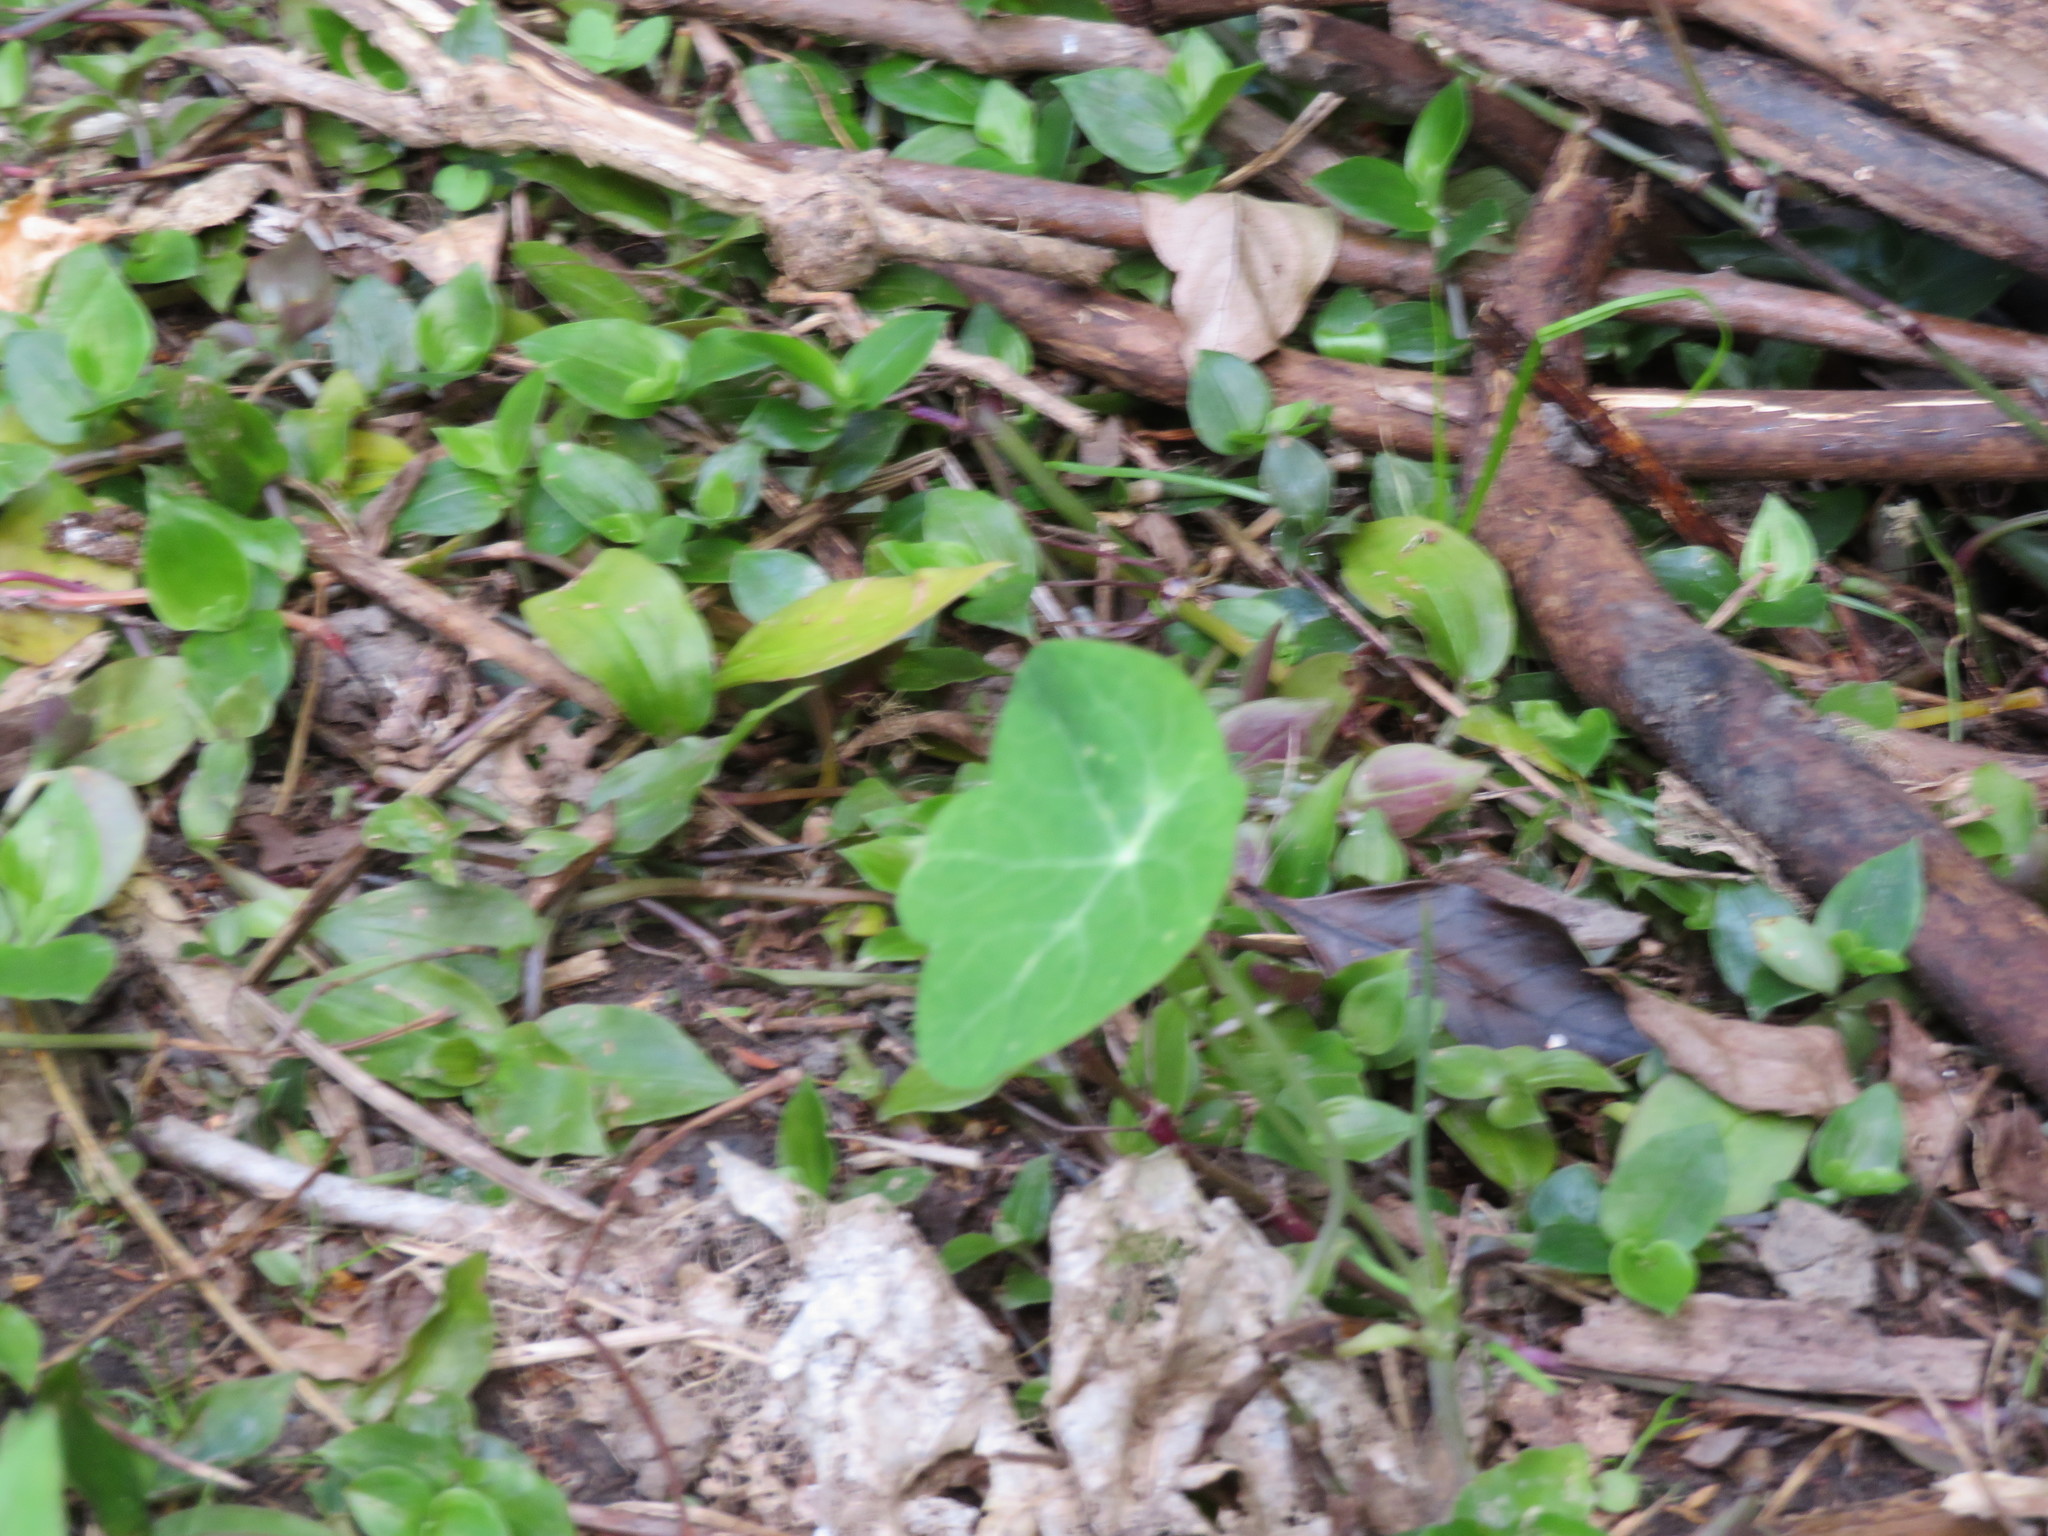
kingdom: Plantae
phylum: Tracheophyta
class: Liliopsida
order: Commelinales
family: Commelinaceae
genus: Tradescantia
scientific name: Tradescantia fluminensis
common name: Wandering-jew
